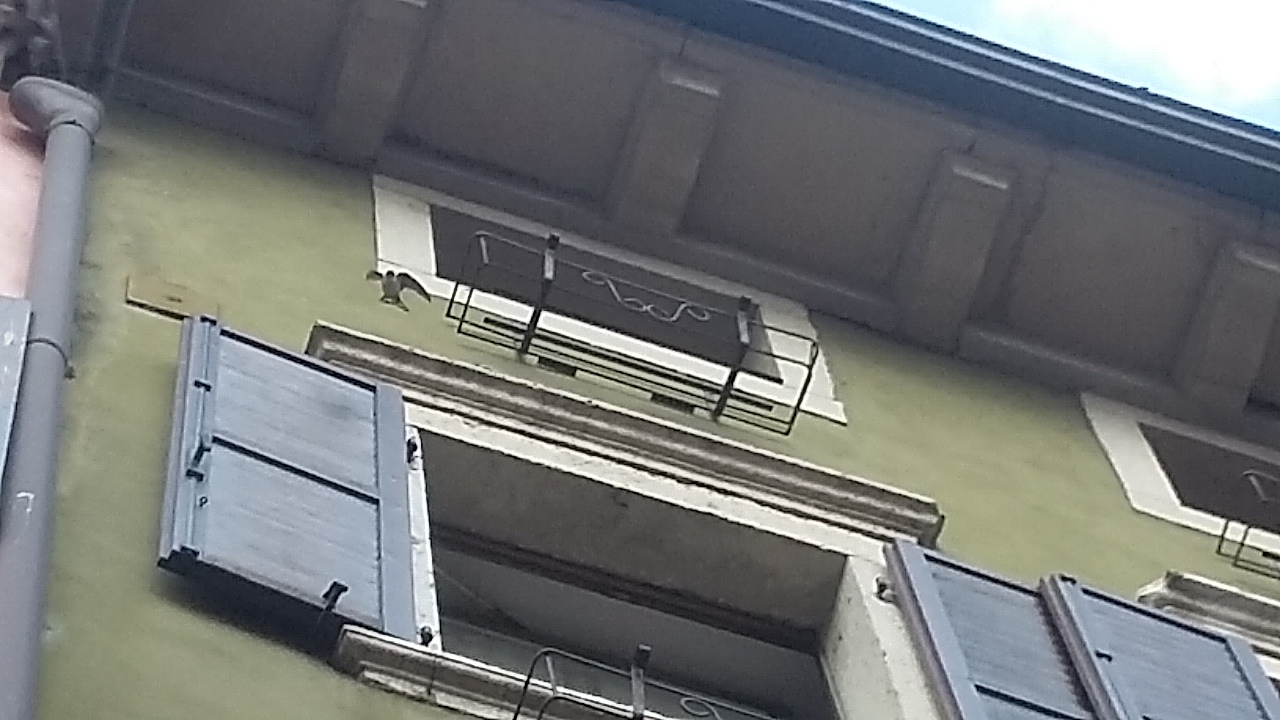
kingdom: Animalia
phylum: Chordata
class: Aves
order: Passeriformes
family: Hirundinidae
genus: Delichon
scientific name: Delichon urbicum
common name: Common house martin
